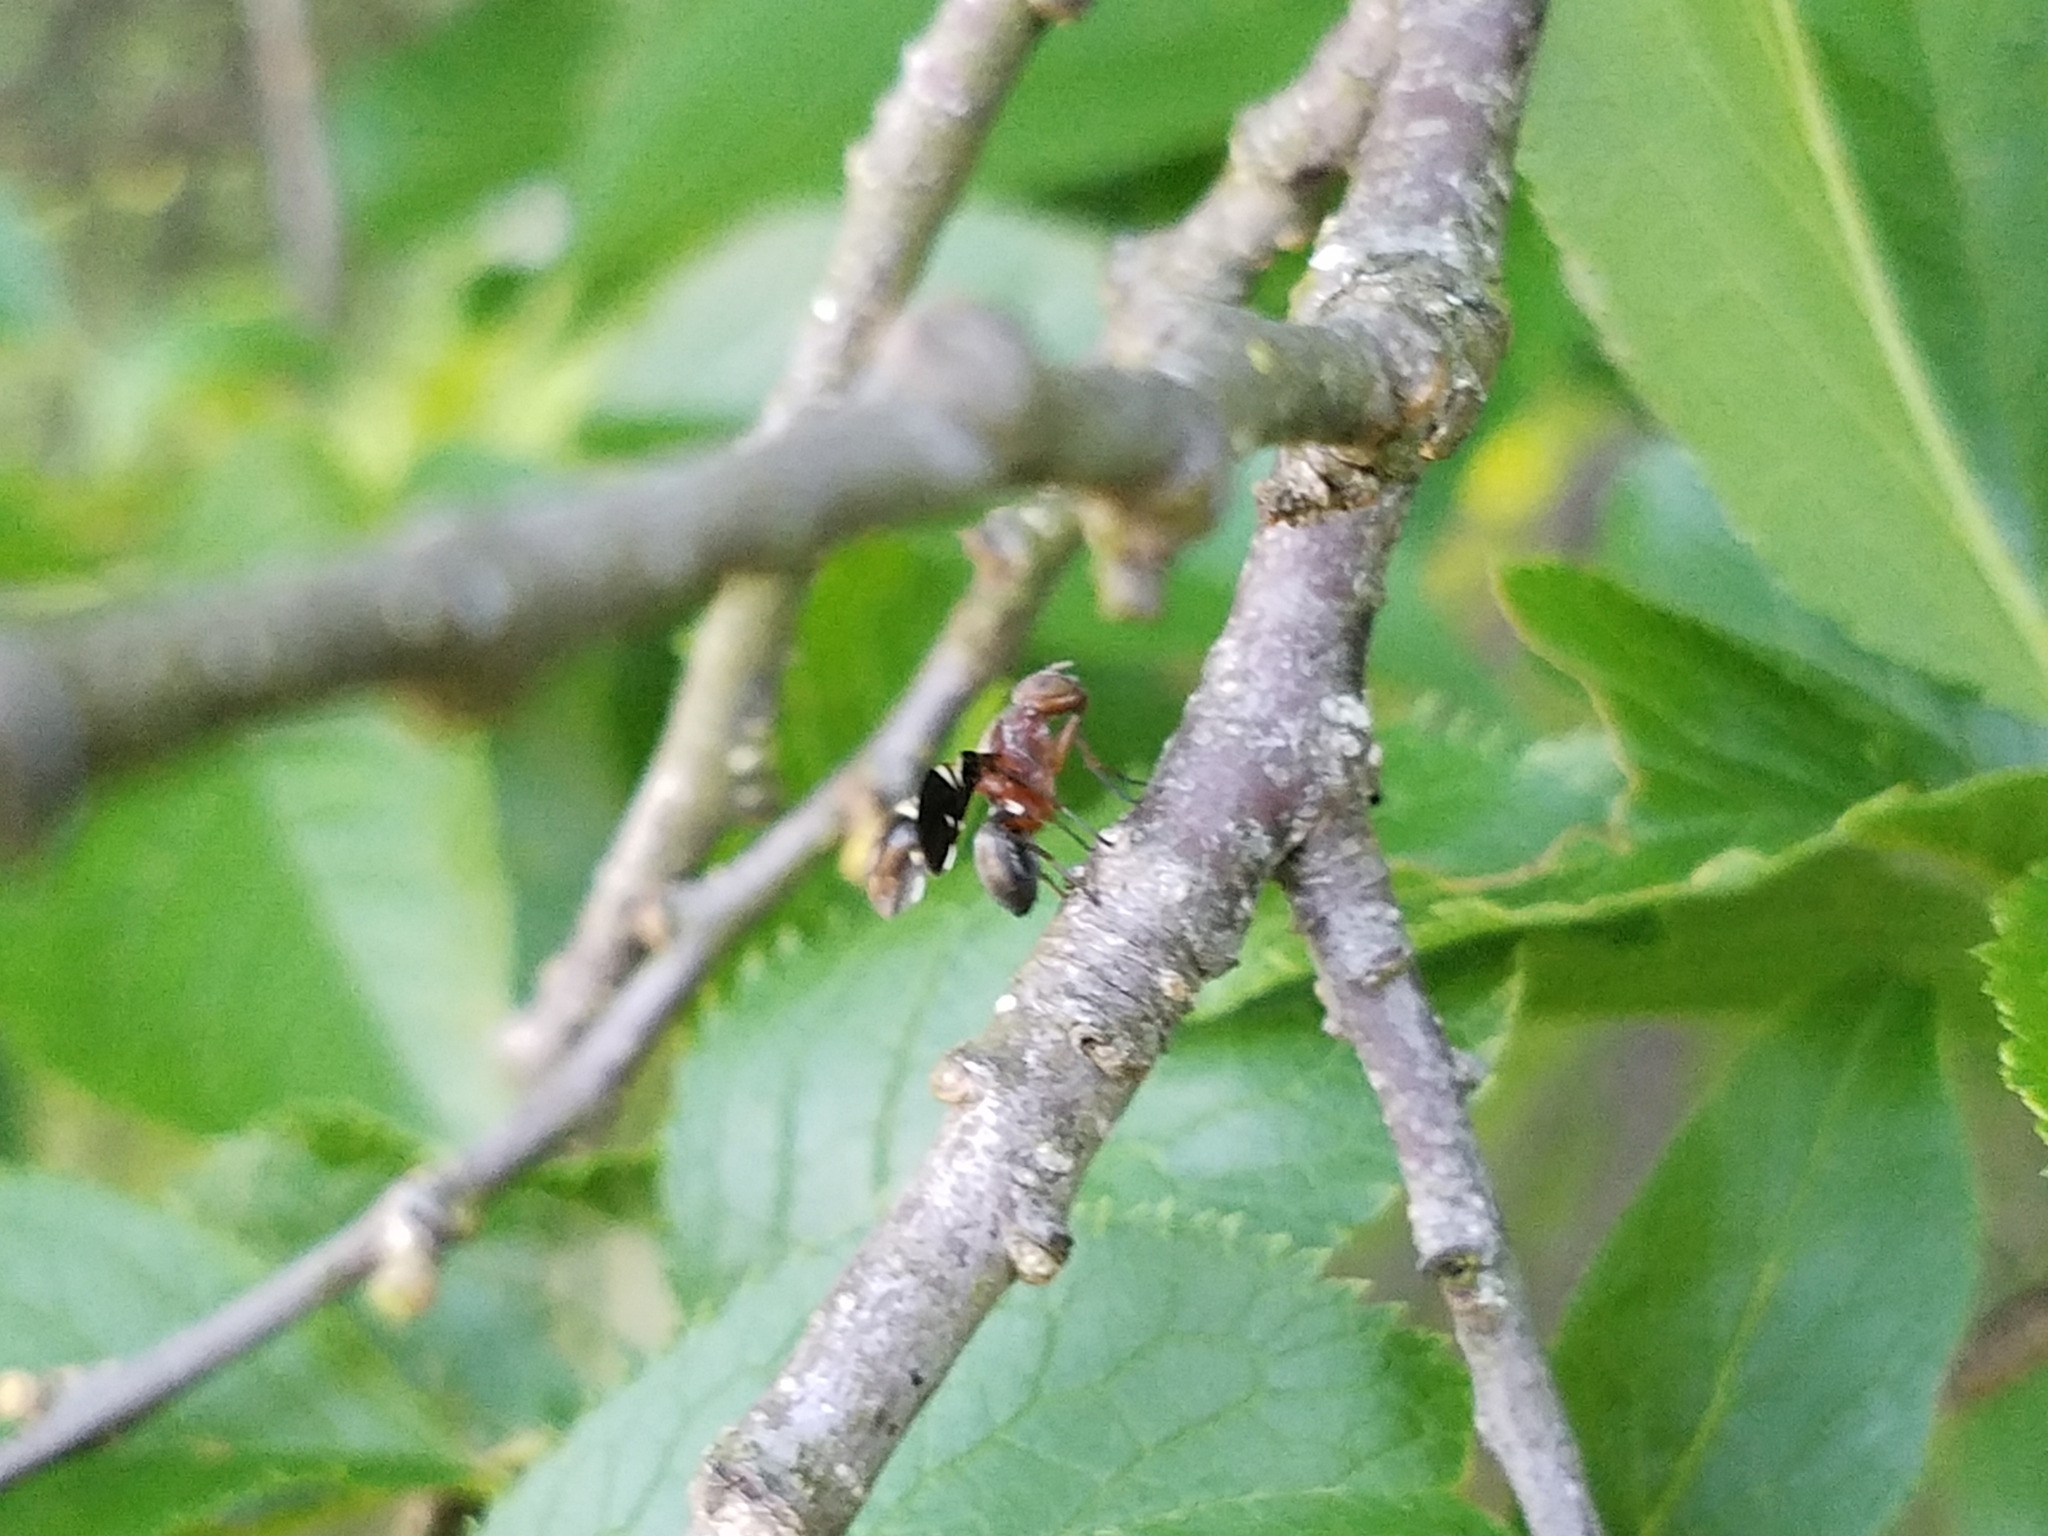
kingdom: Animalia
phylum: Arthropoda
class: Insecta
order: Diptera
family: Ulidiidae
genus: Delphinia
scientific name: Delphinia picta
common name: Common picture-winged fly
